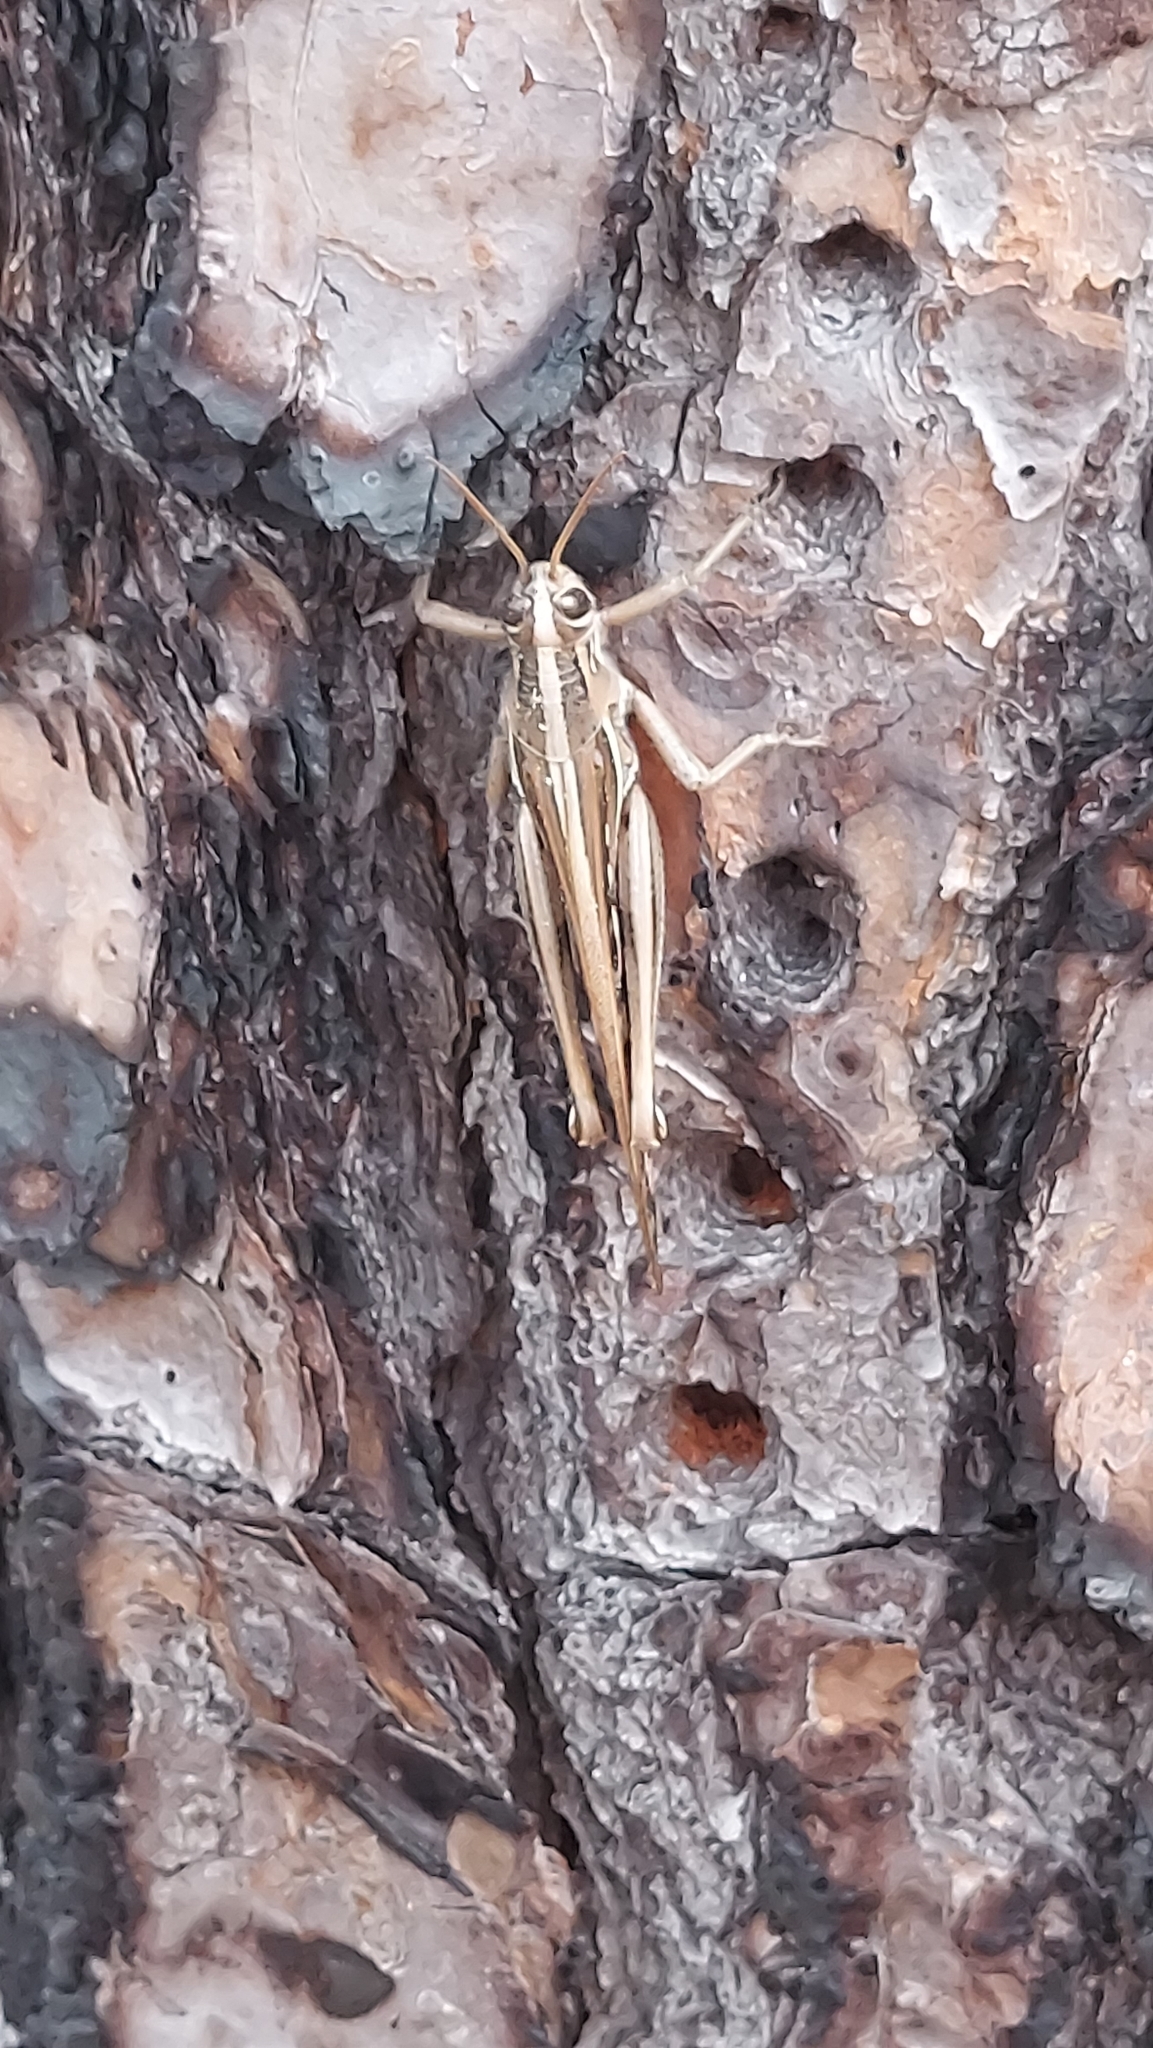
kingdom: Animalia
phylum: Arthropoda
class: Insecta
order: Orthoptera
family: Acrididae
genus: Schistocerca
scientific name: Schistocerca americana
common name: American bird locust
